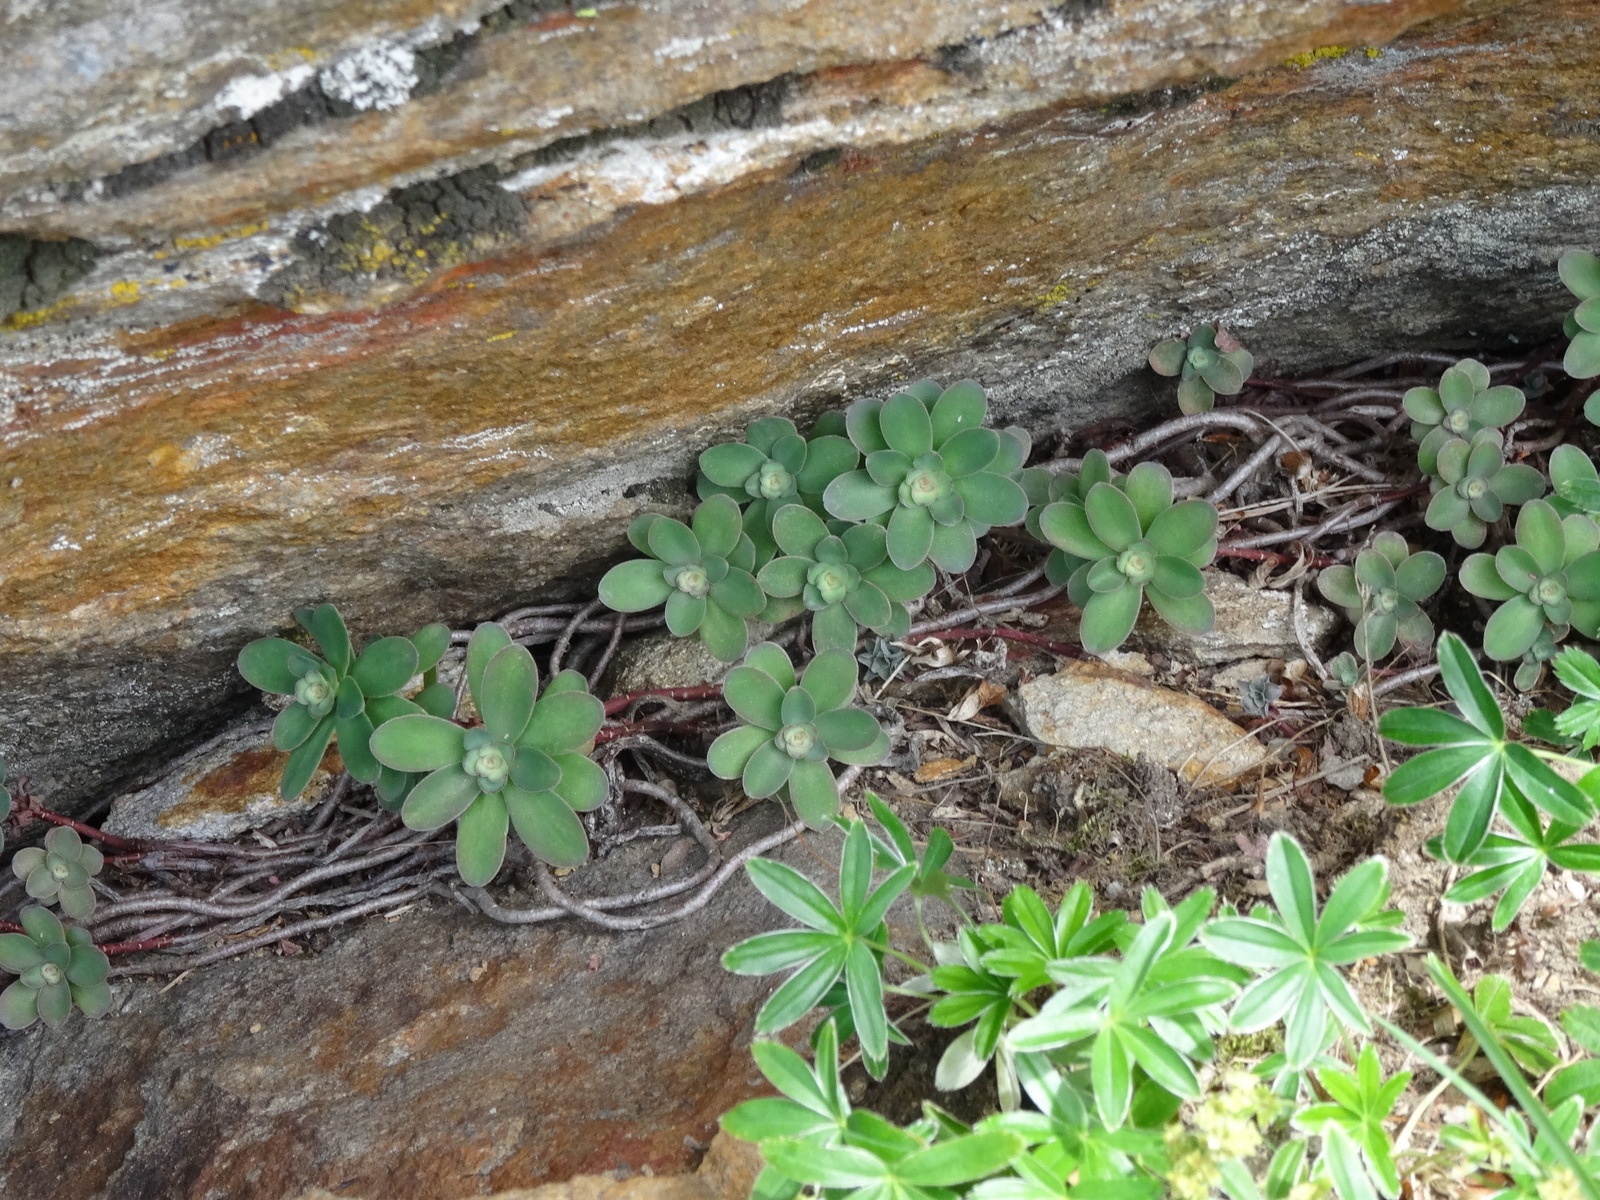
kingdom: Plantae
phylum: Tracheophyta
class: Magnoliopsida
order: Saxifragales
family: Crassulaceae
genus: Hylotelephium
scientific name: Hylotelephium anacampseros
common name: Love-restorer
